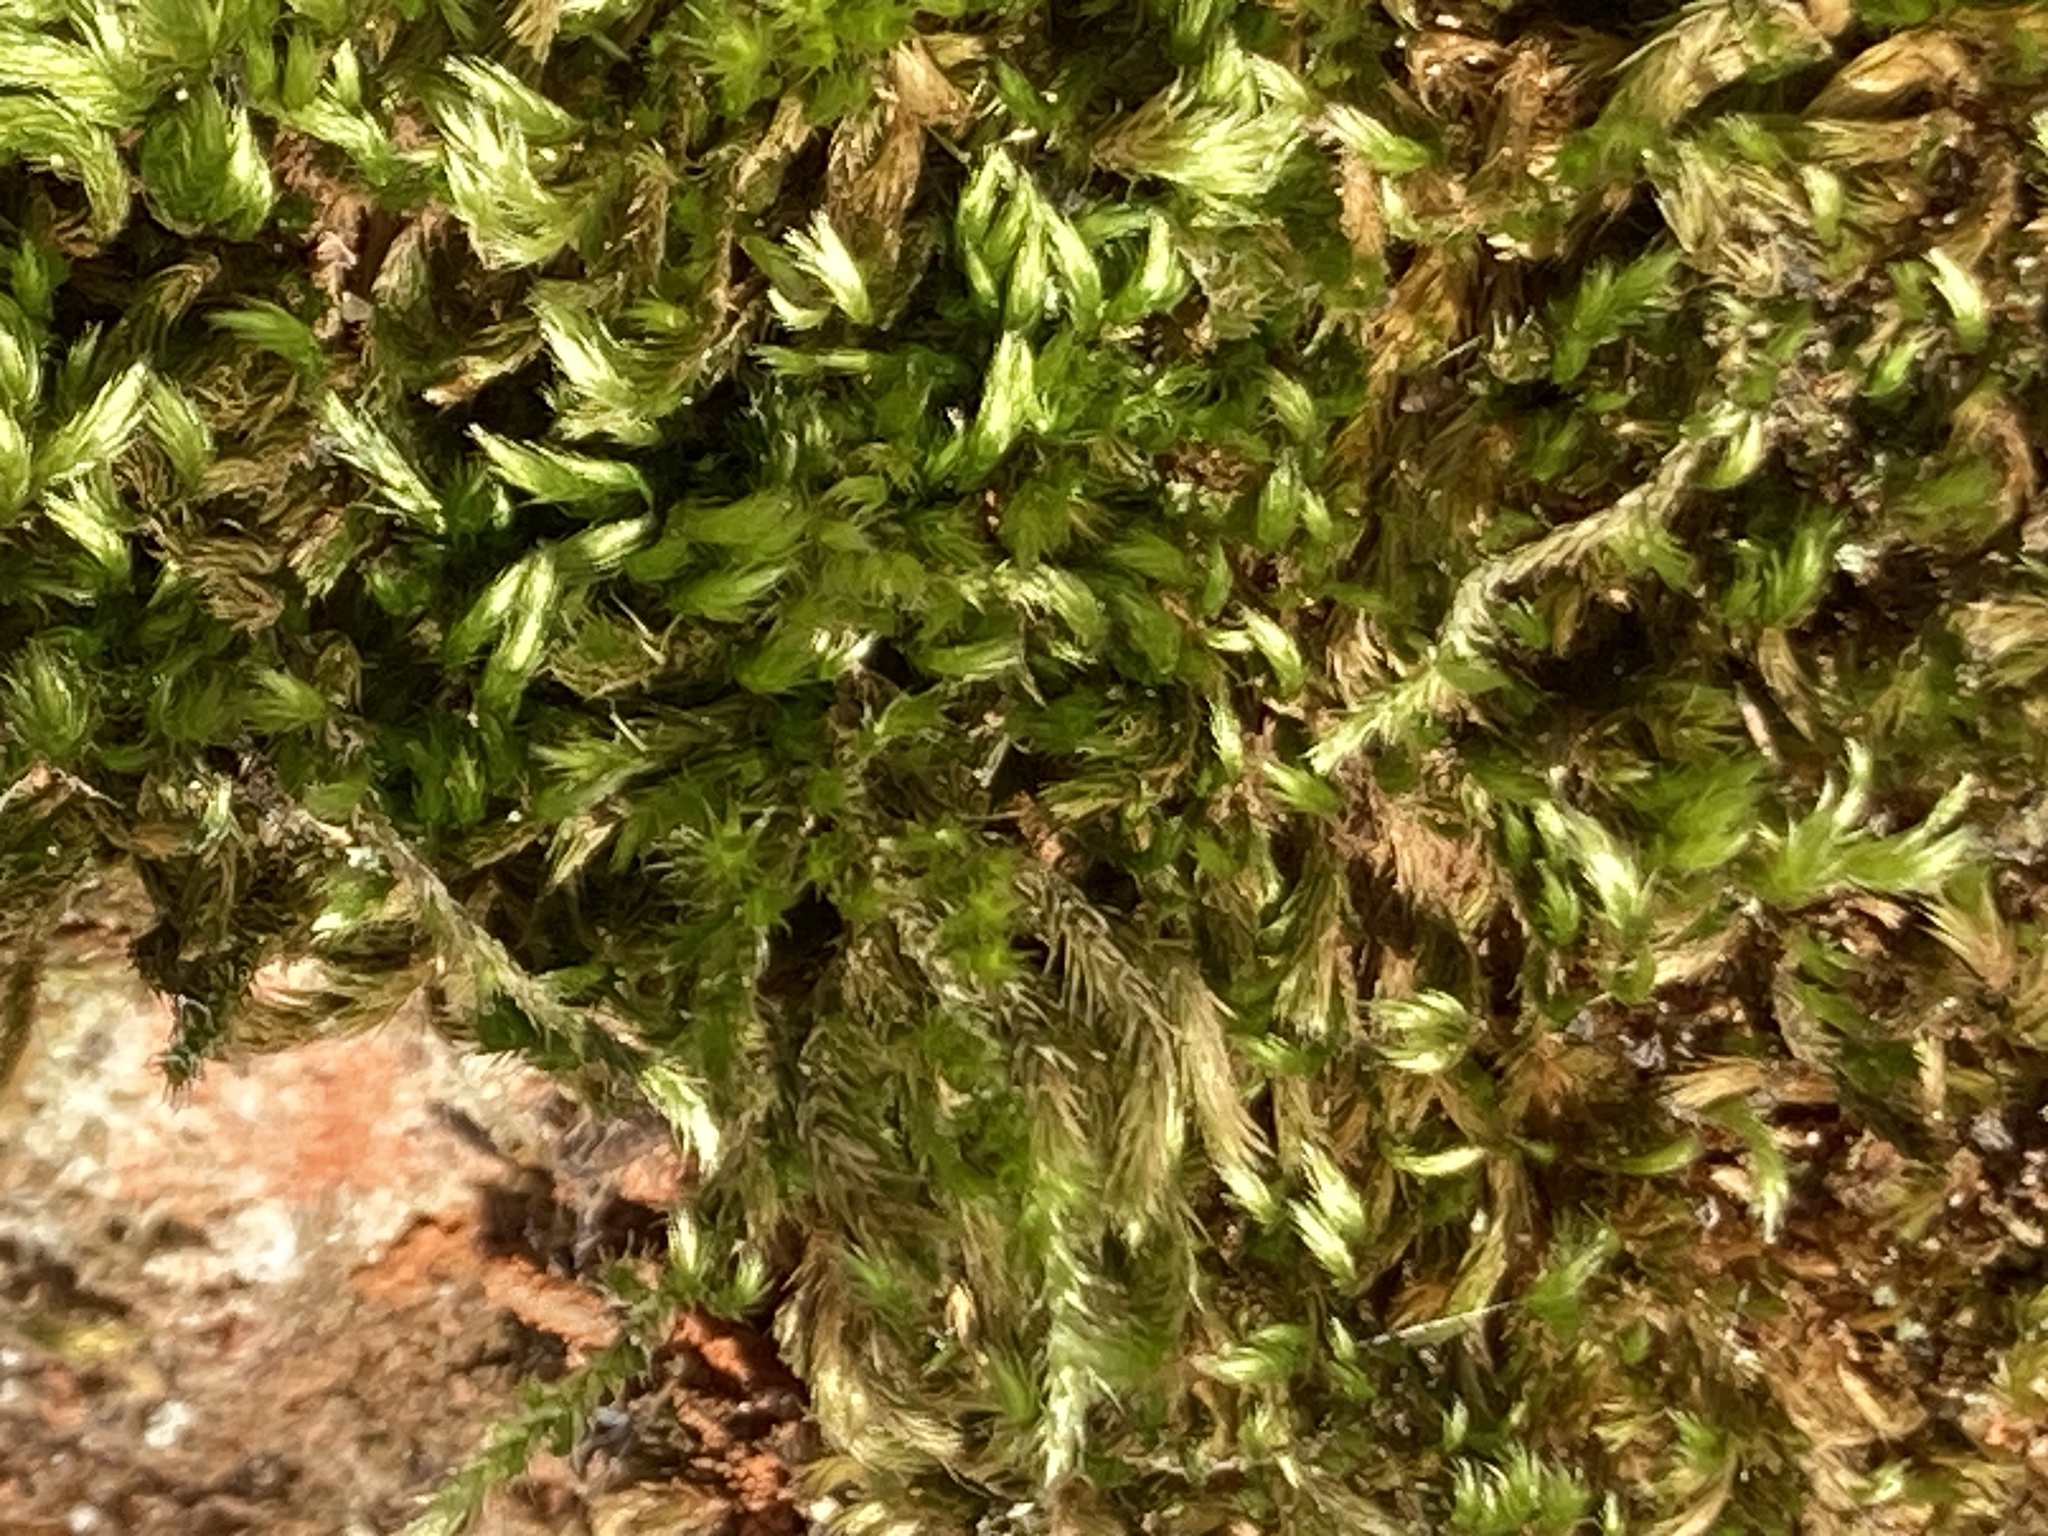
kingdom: Plantae
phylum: Bryophyta
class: Bryopsida
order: Hypnales
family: Brachytheciaceae
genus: Homalothecium
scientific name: Homalothecium sericeum
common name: Silky wall feather-moss
